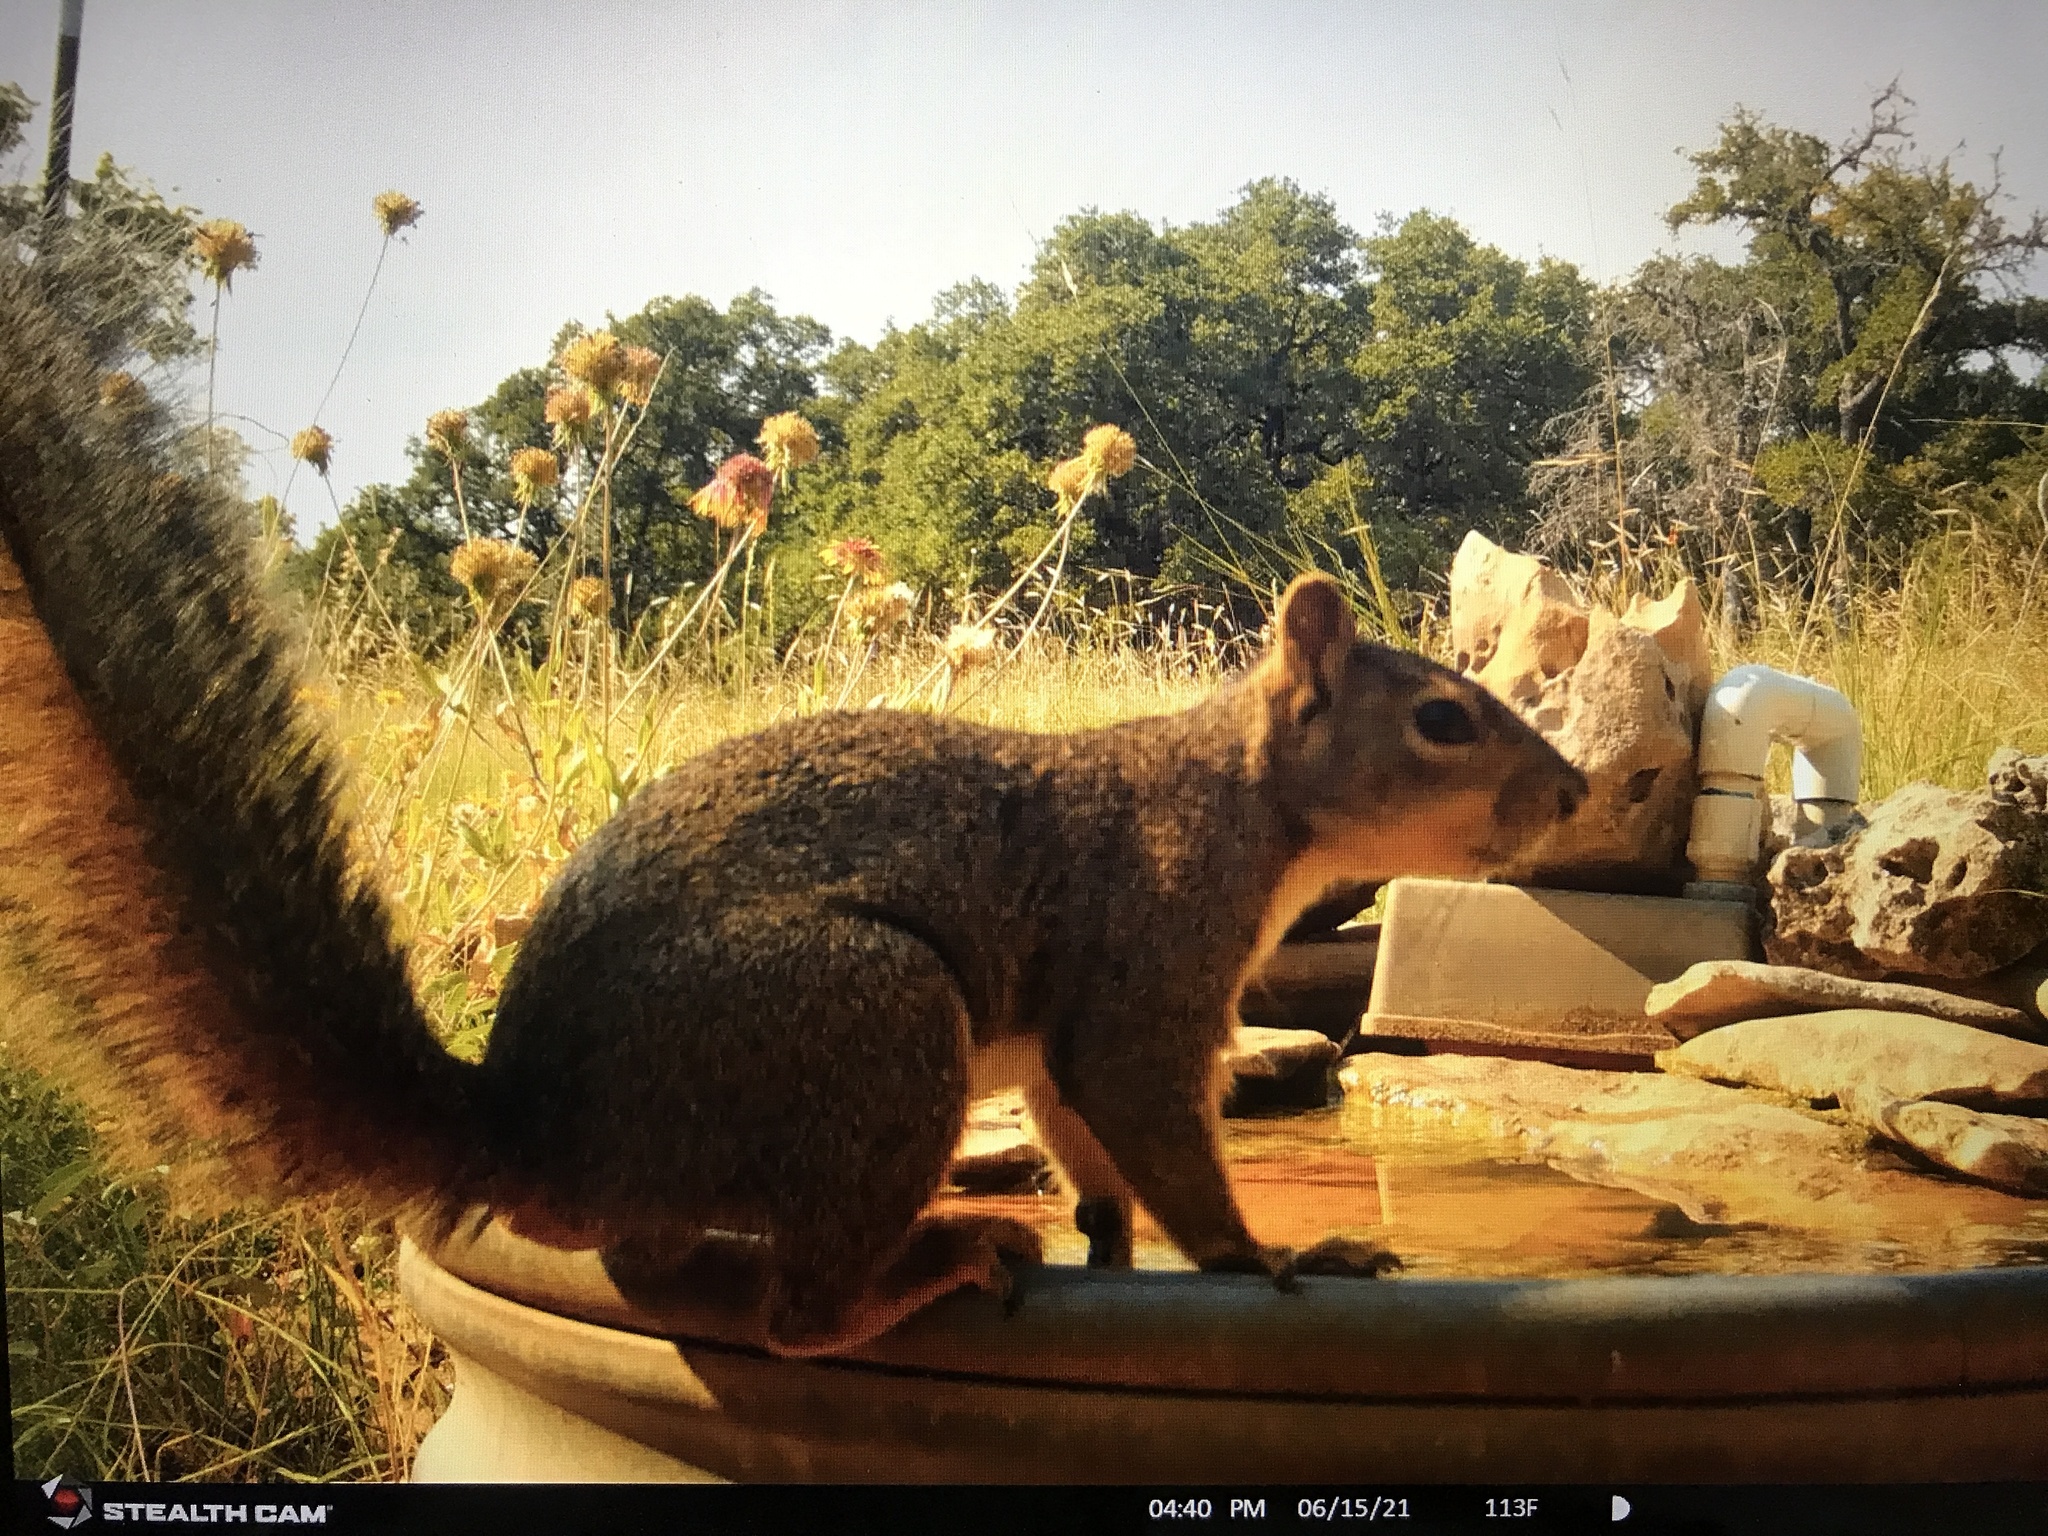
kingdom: Animalia
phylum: Chordata
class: Mammalia
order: Rodentia
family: Sciuridae
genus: Sciurus
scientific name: Sciurus niger
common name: Fox squirrel
